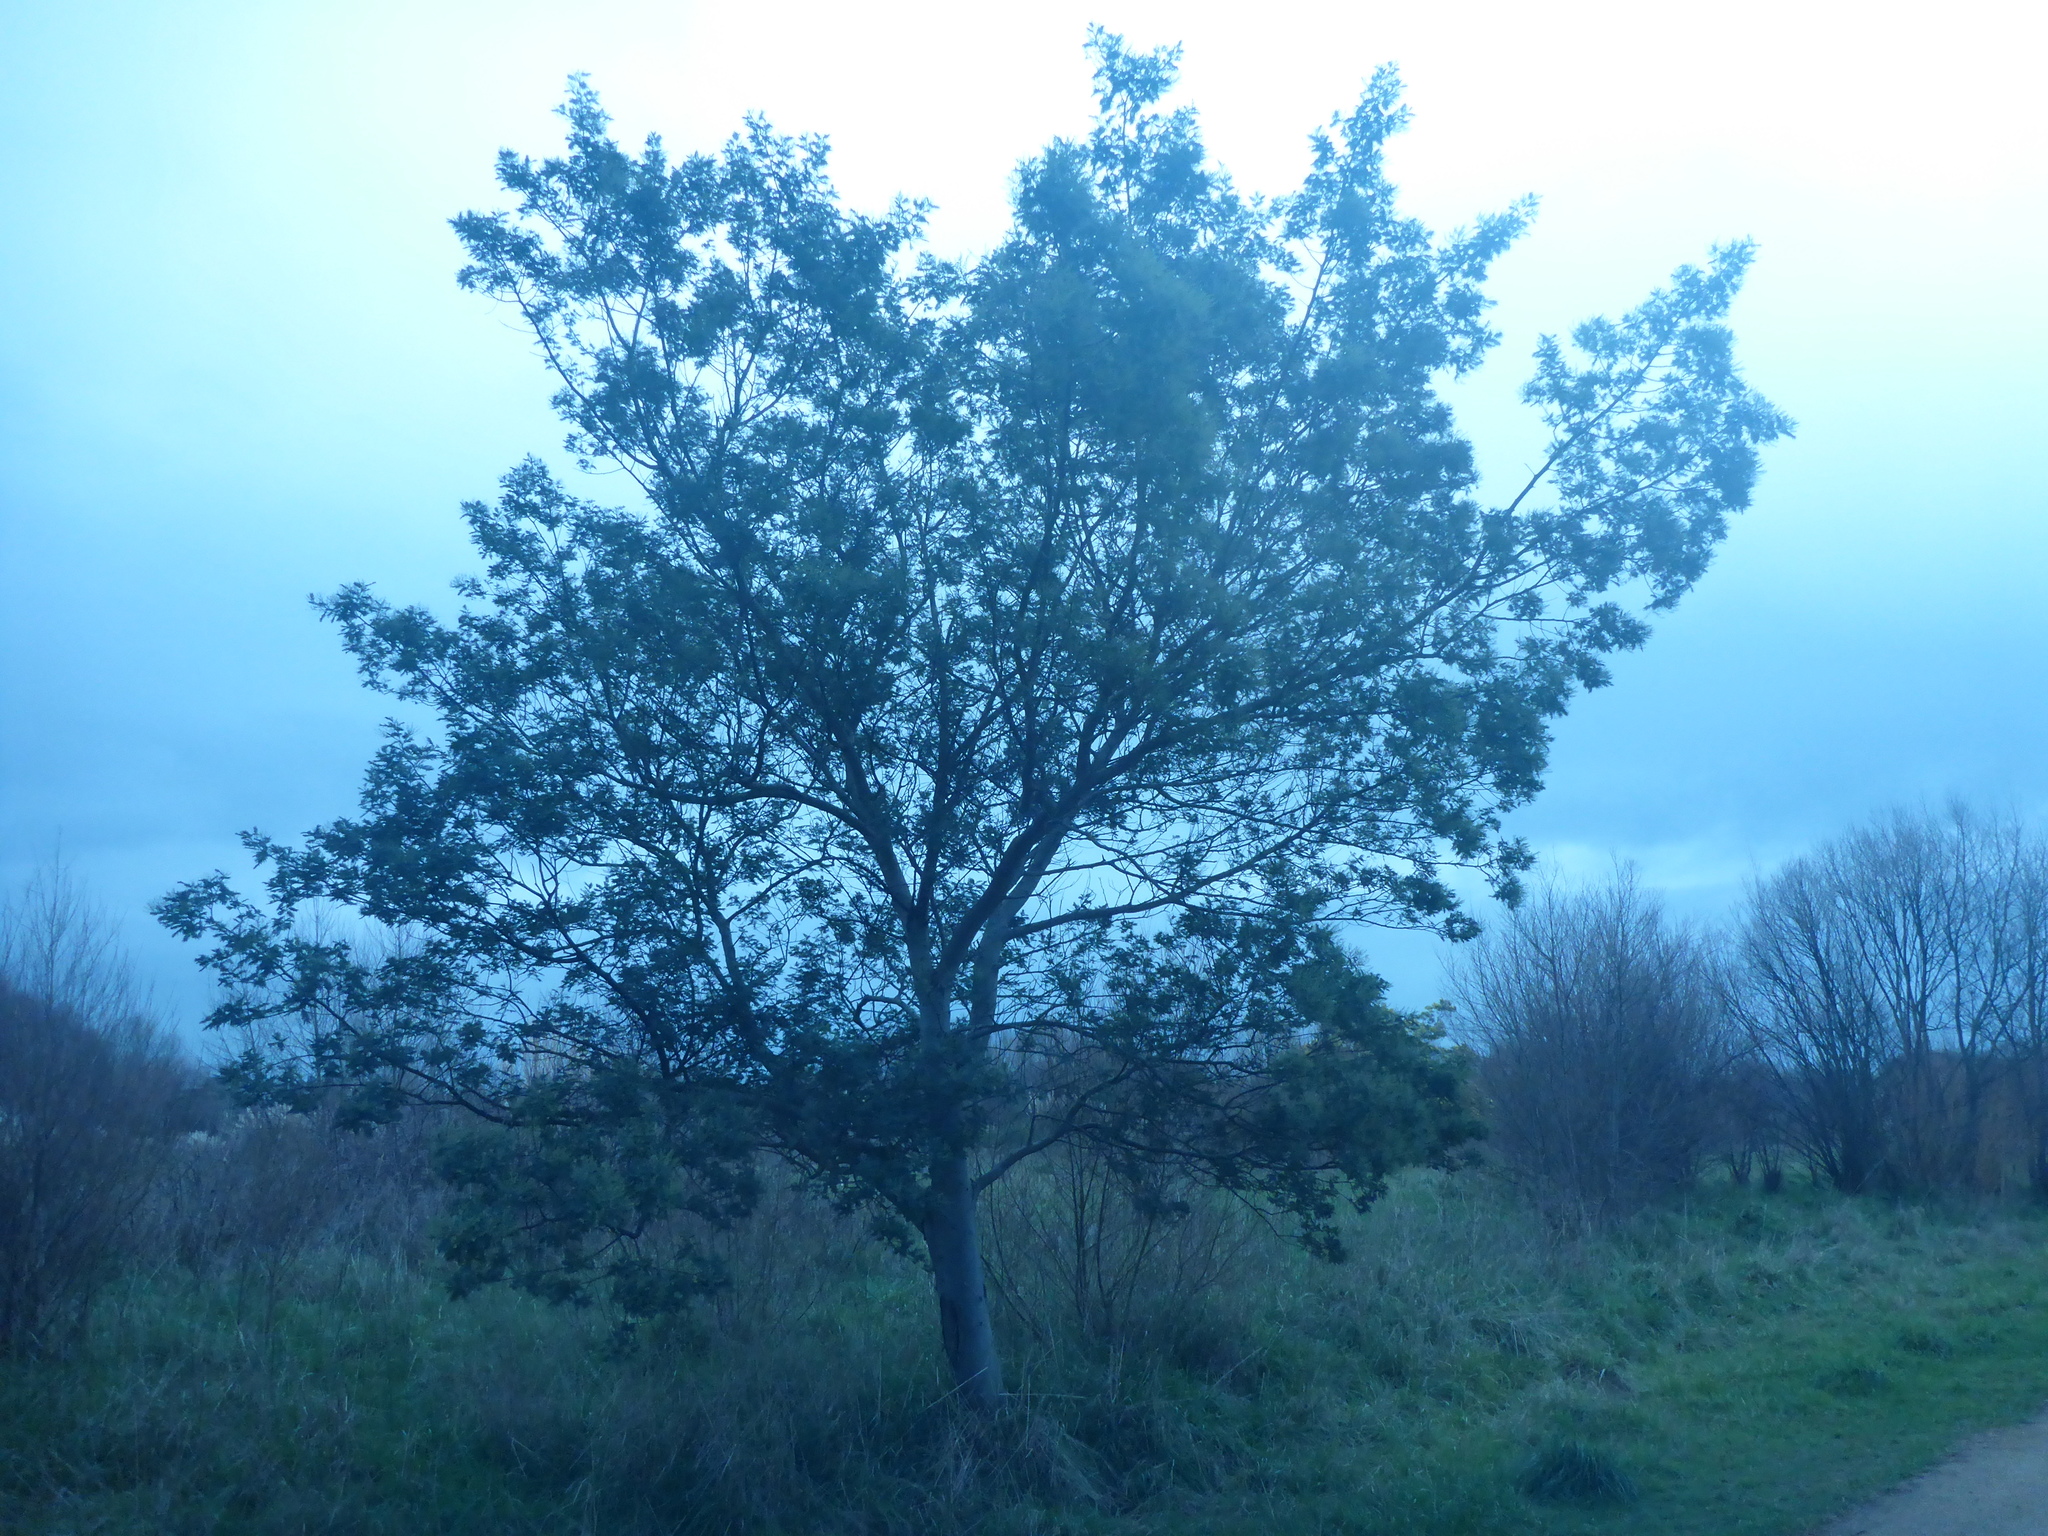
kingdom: Plantae
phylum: Tracheophyta
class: Magnoliopsida
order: Fabales
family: Fabaceae
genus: Acacia
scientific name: Acacia dealbata
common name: Silver wattle
